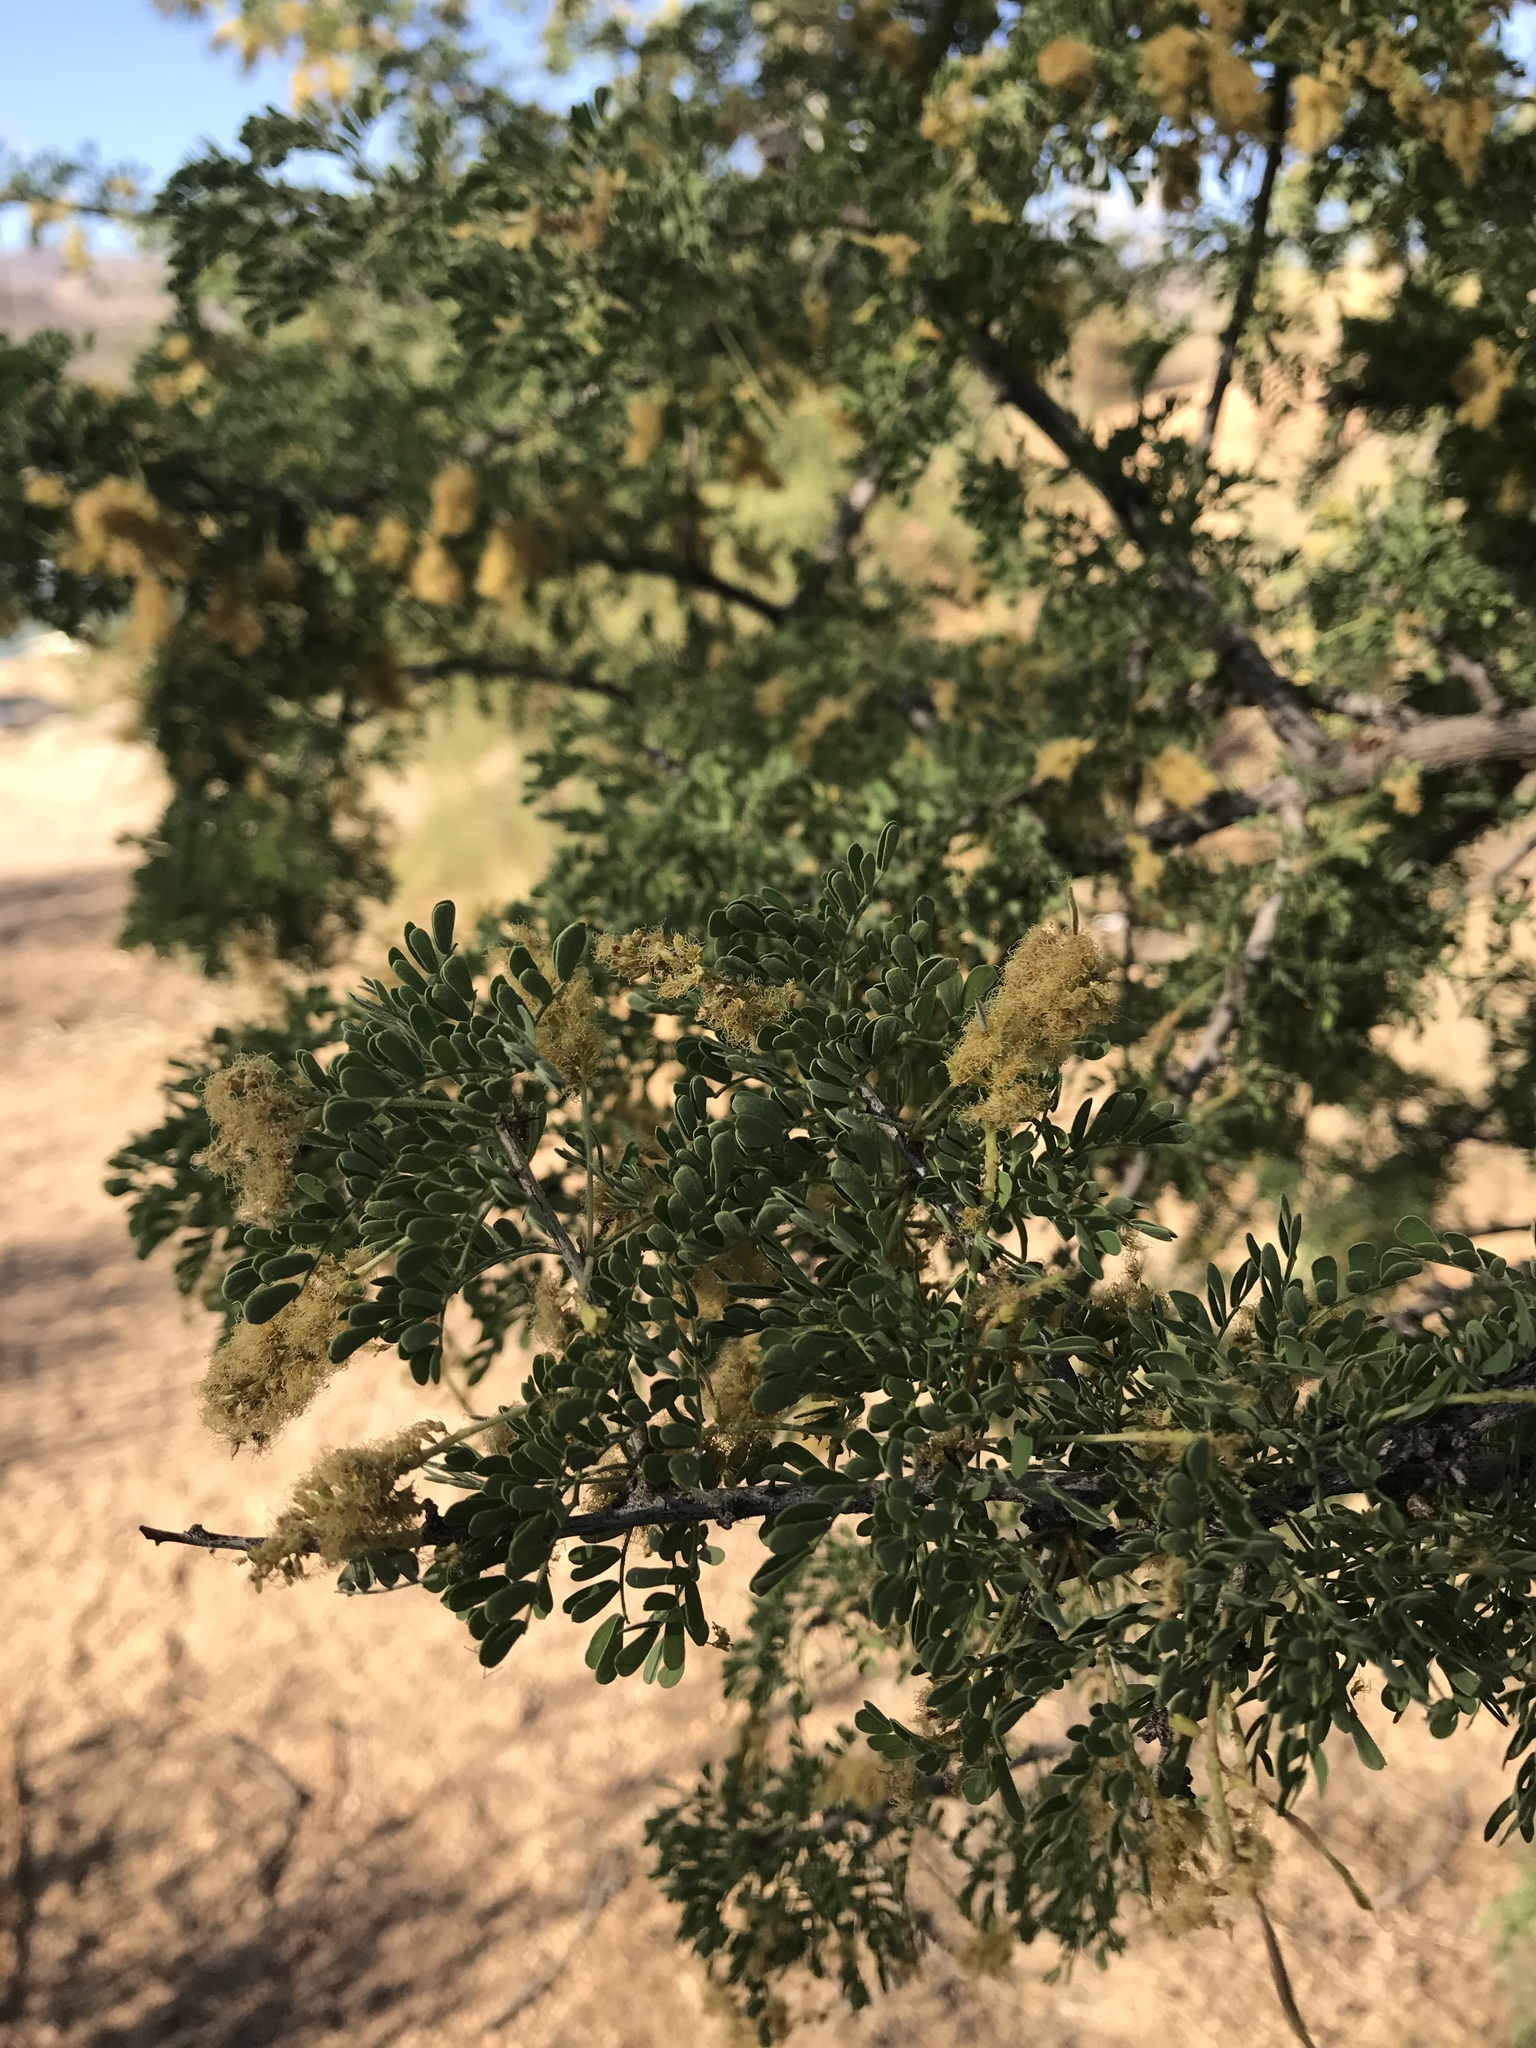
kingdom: Plantae
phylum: Tracheophyta
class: Magnoliopsida
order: Fabales
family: Fabaceae
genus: Senegalia
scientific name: Senegalia greggii
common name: Texas-mimosa
